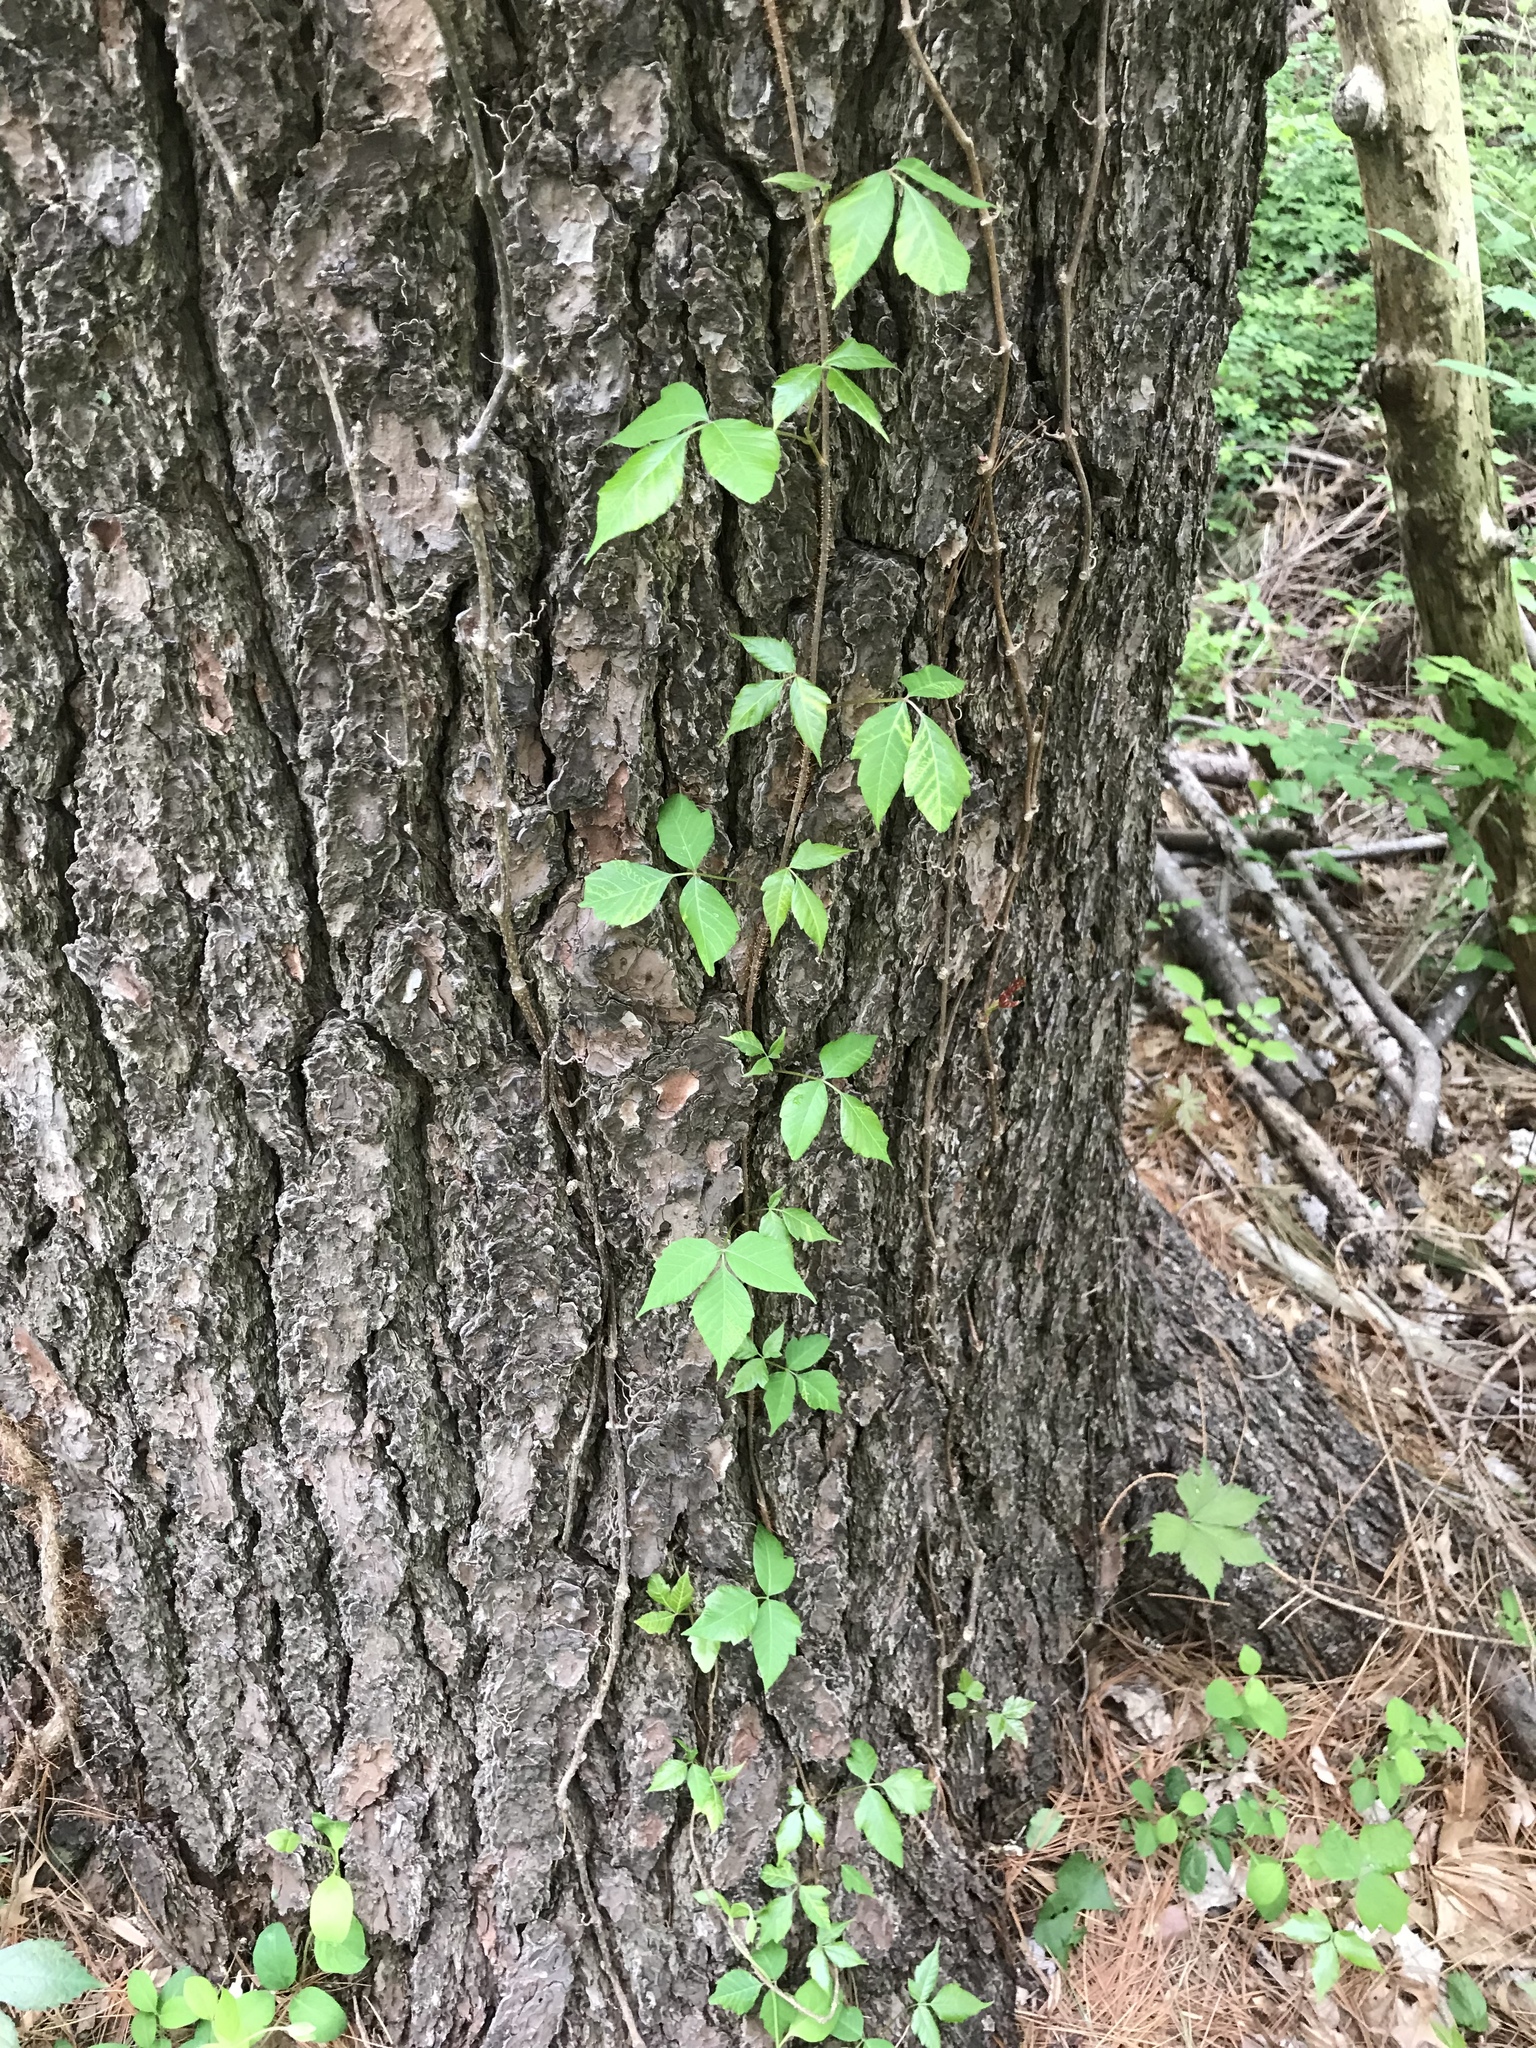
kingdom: Plantae
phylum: Tracheophyta
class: Magnoliopsida
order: Sapindales
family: Anacardiaceae
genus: Toxicodendron
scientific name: Toxicodendron radicans
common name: Poison ivy
